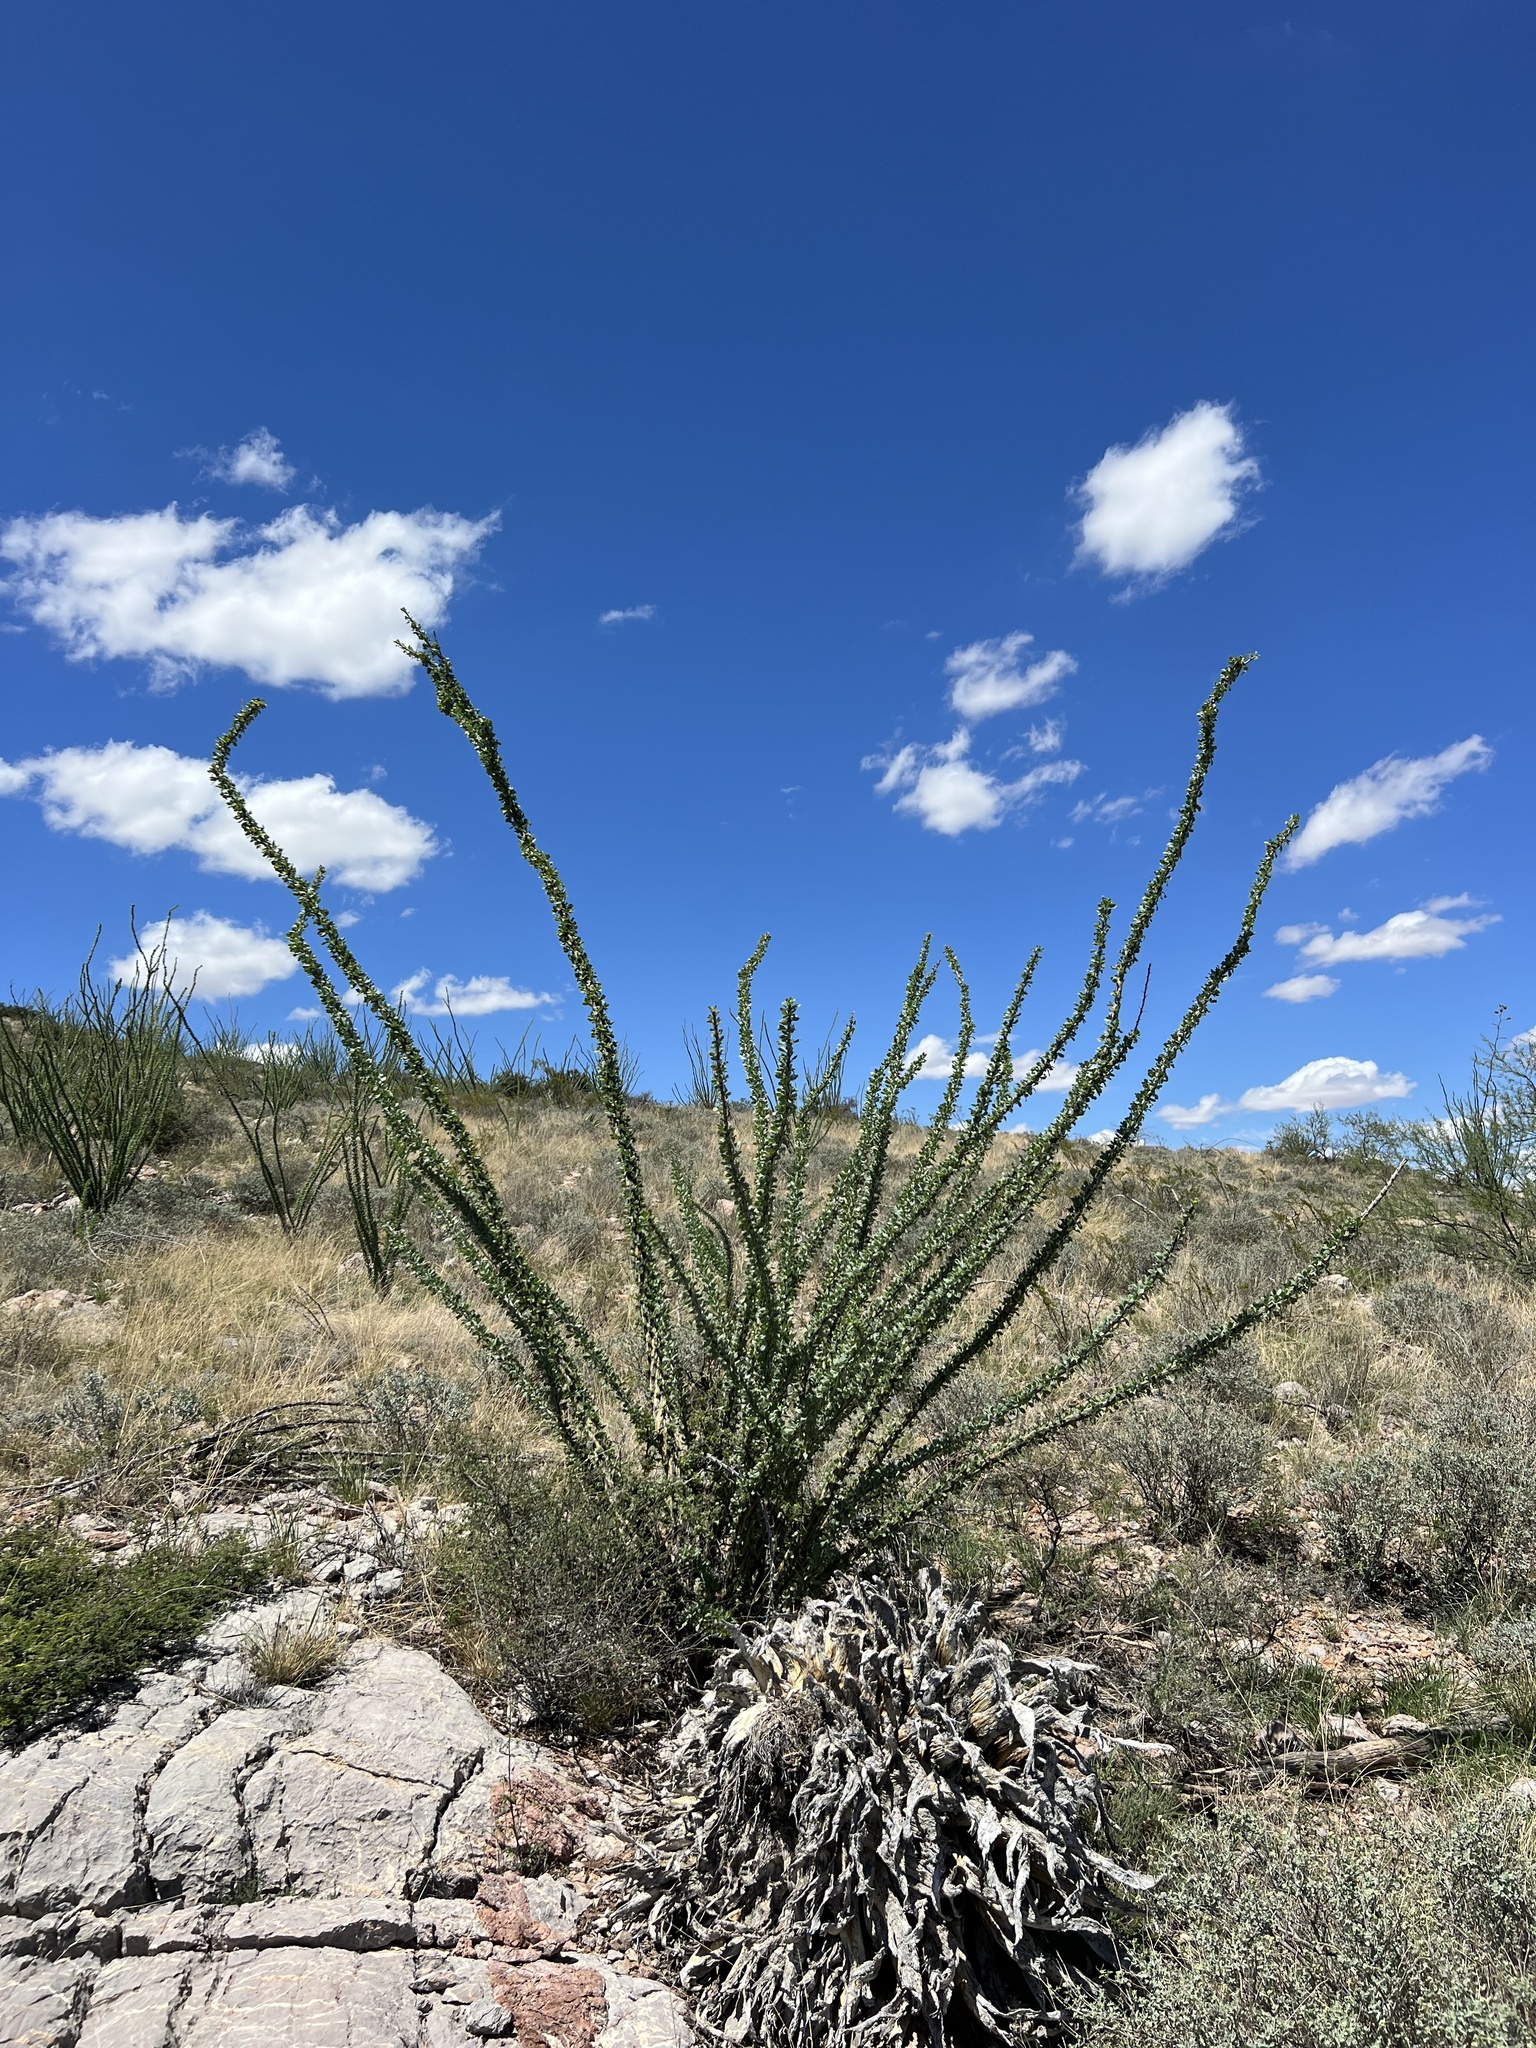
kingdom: Plantae
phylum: Tracheophyta
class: Magnoliopsida
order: Ericales
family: Fouquieriaceae
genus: Fouquieria
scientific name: Fouquieria splendens
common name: Vine-cactus
